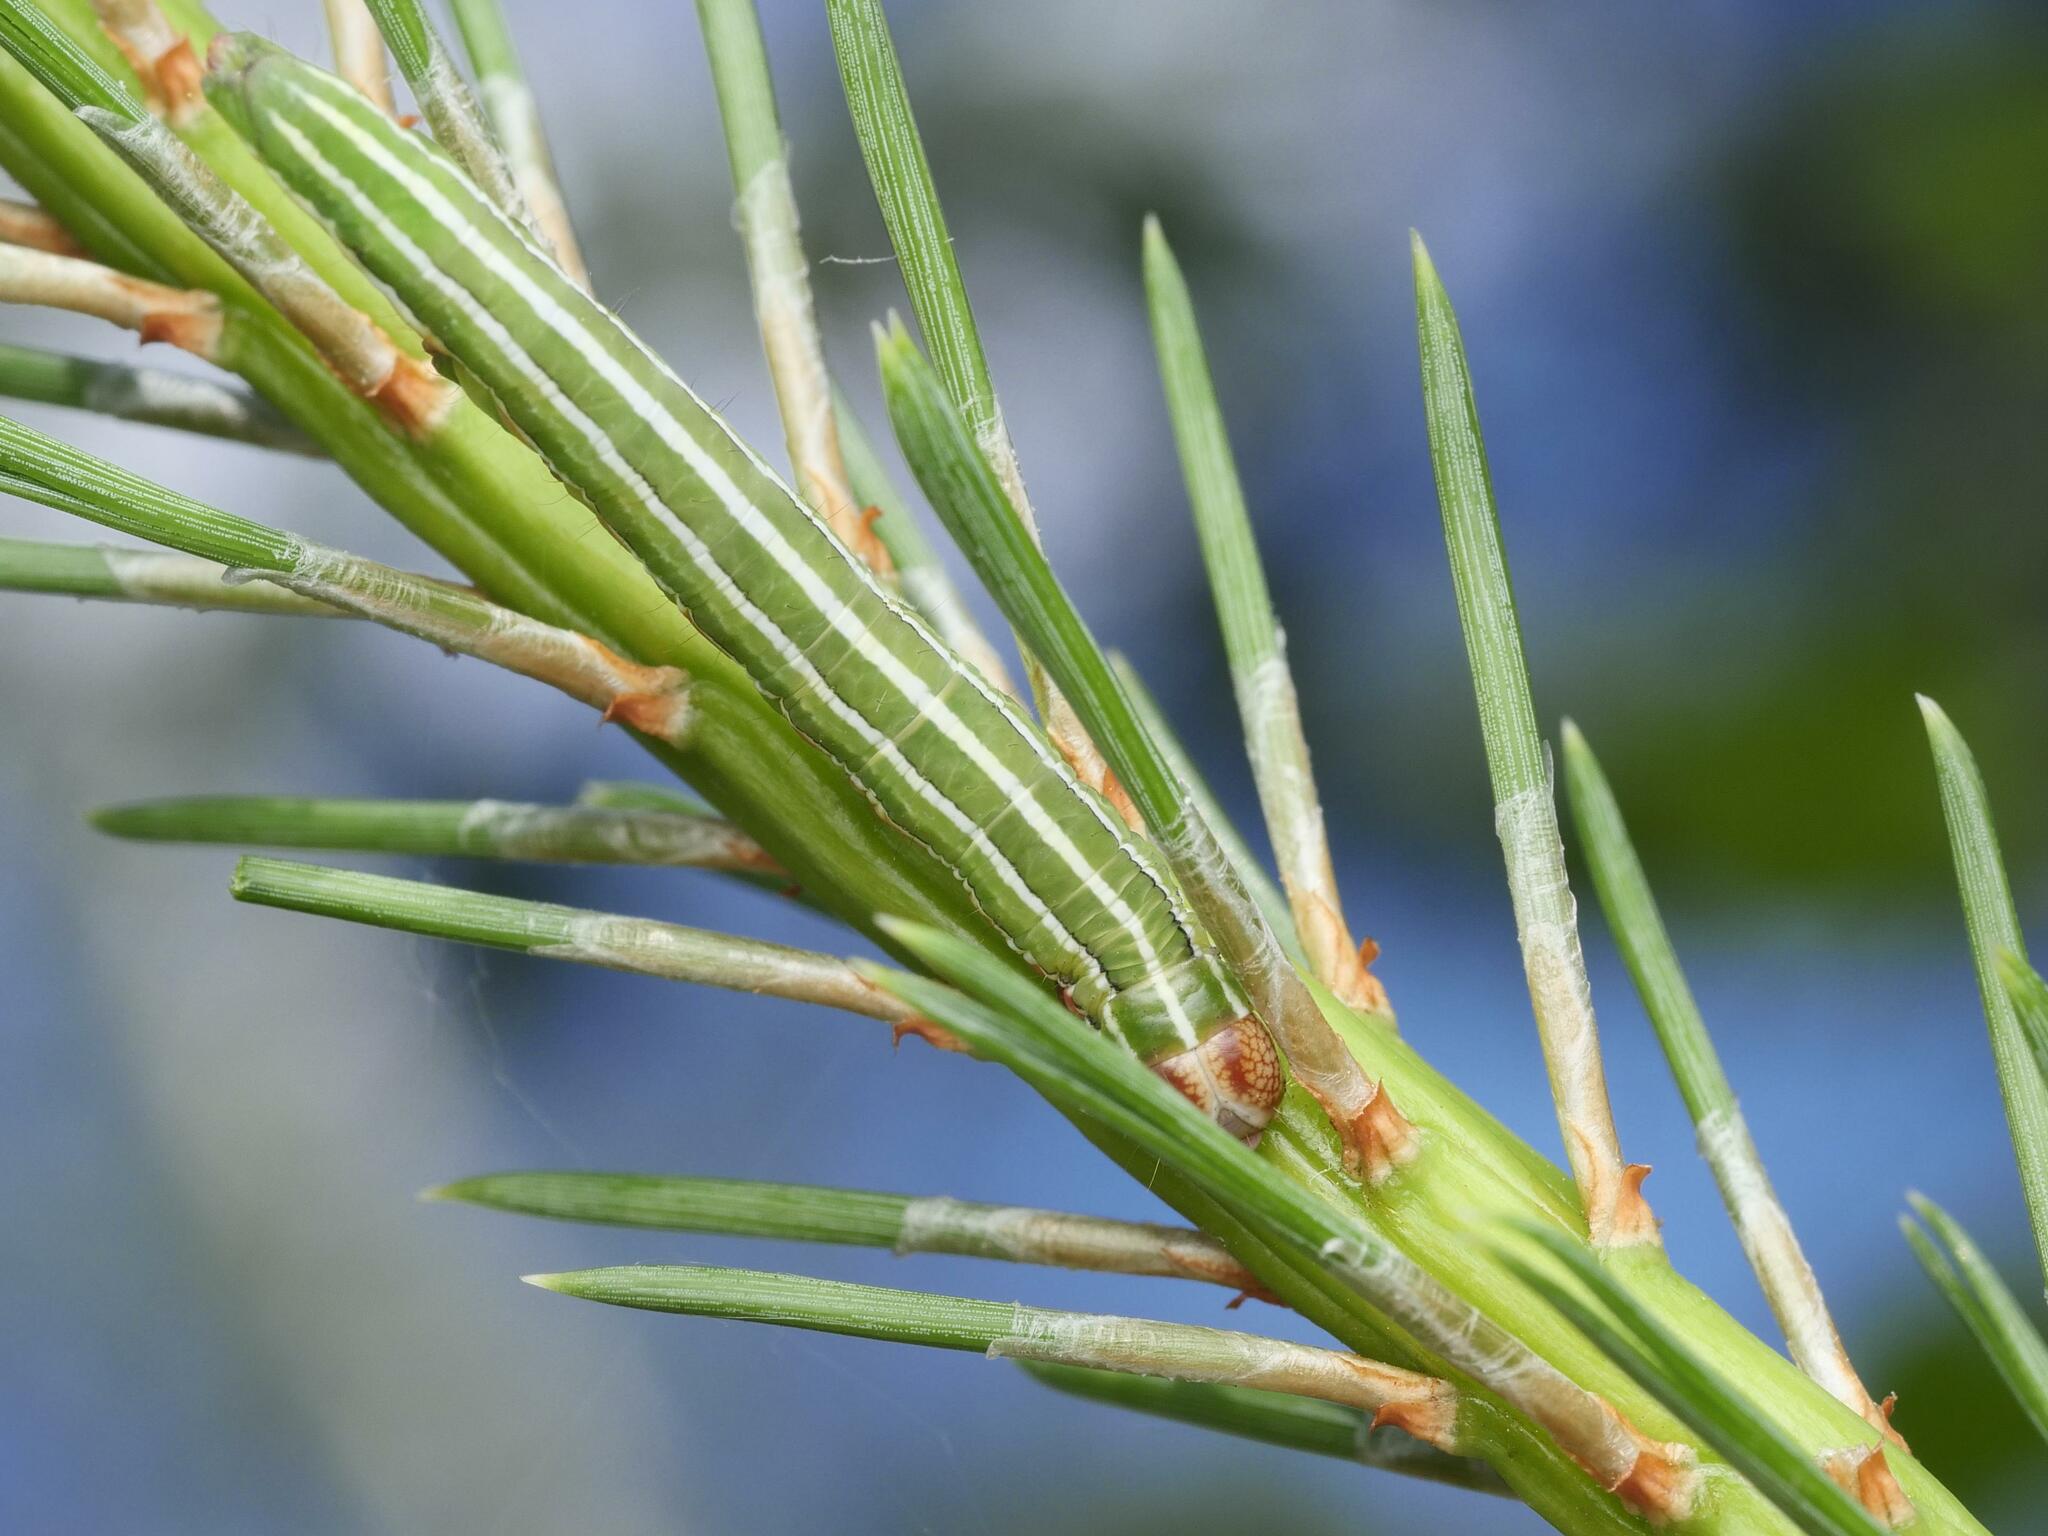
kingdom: Animalia
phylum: Arthropoda
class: Insecta
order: Lepidoptera
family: Noctuidae
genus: Panolis
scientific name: Panolis flammea
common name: Pine beauty
